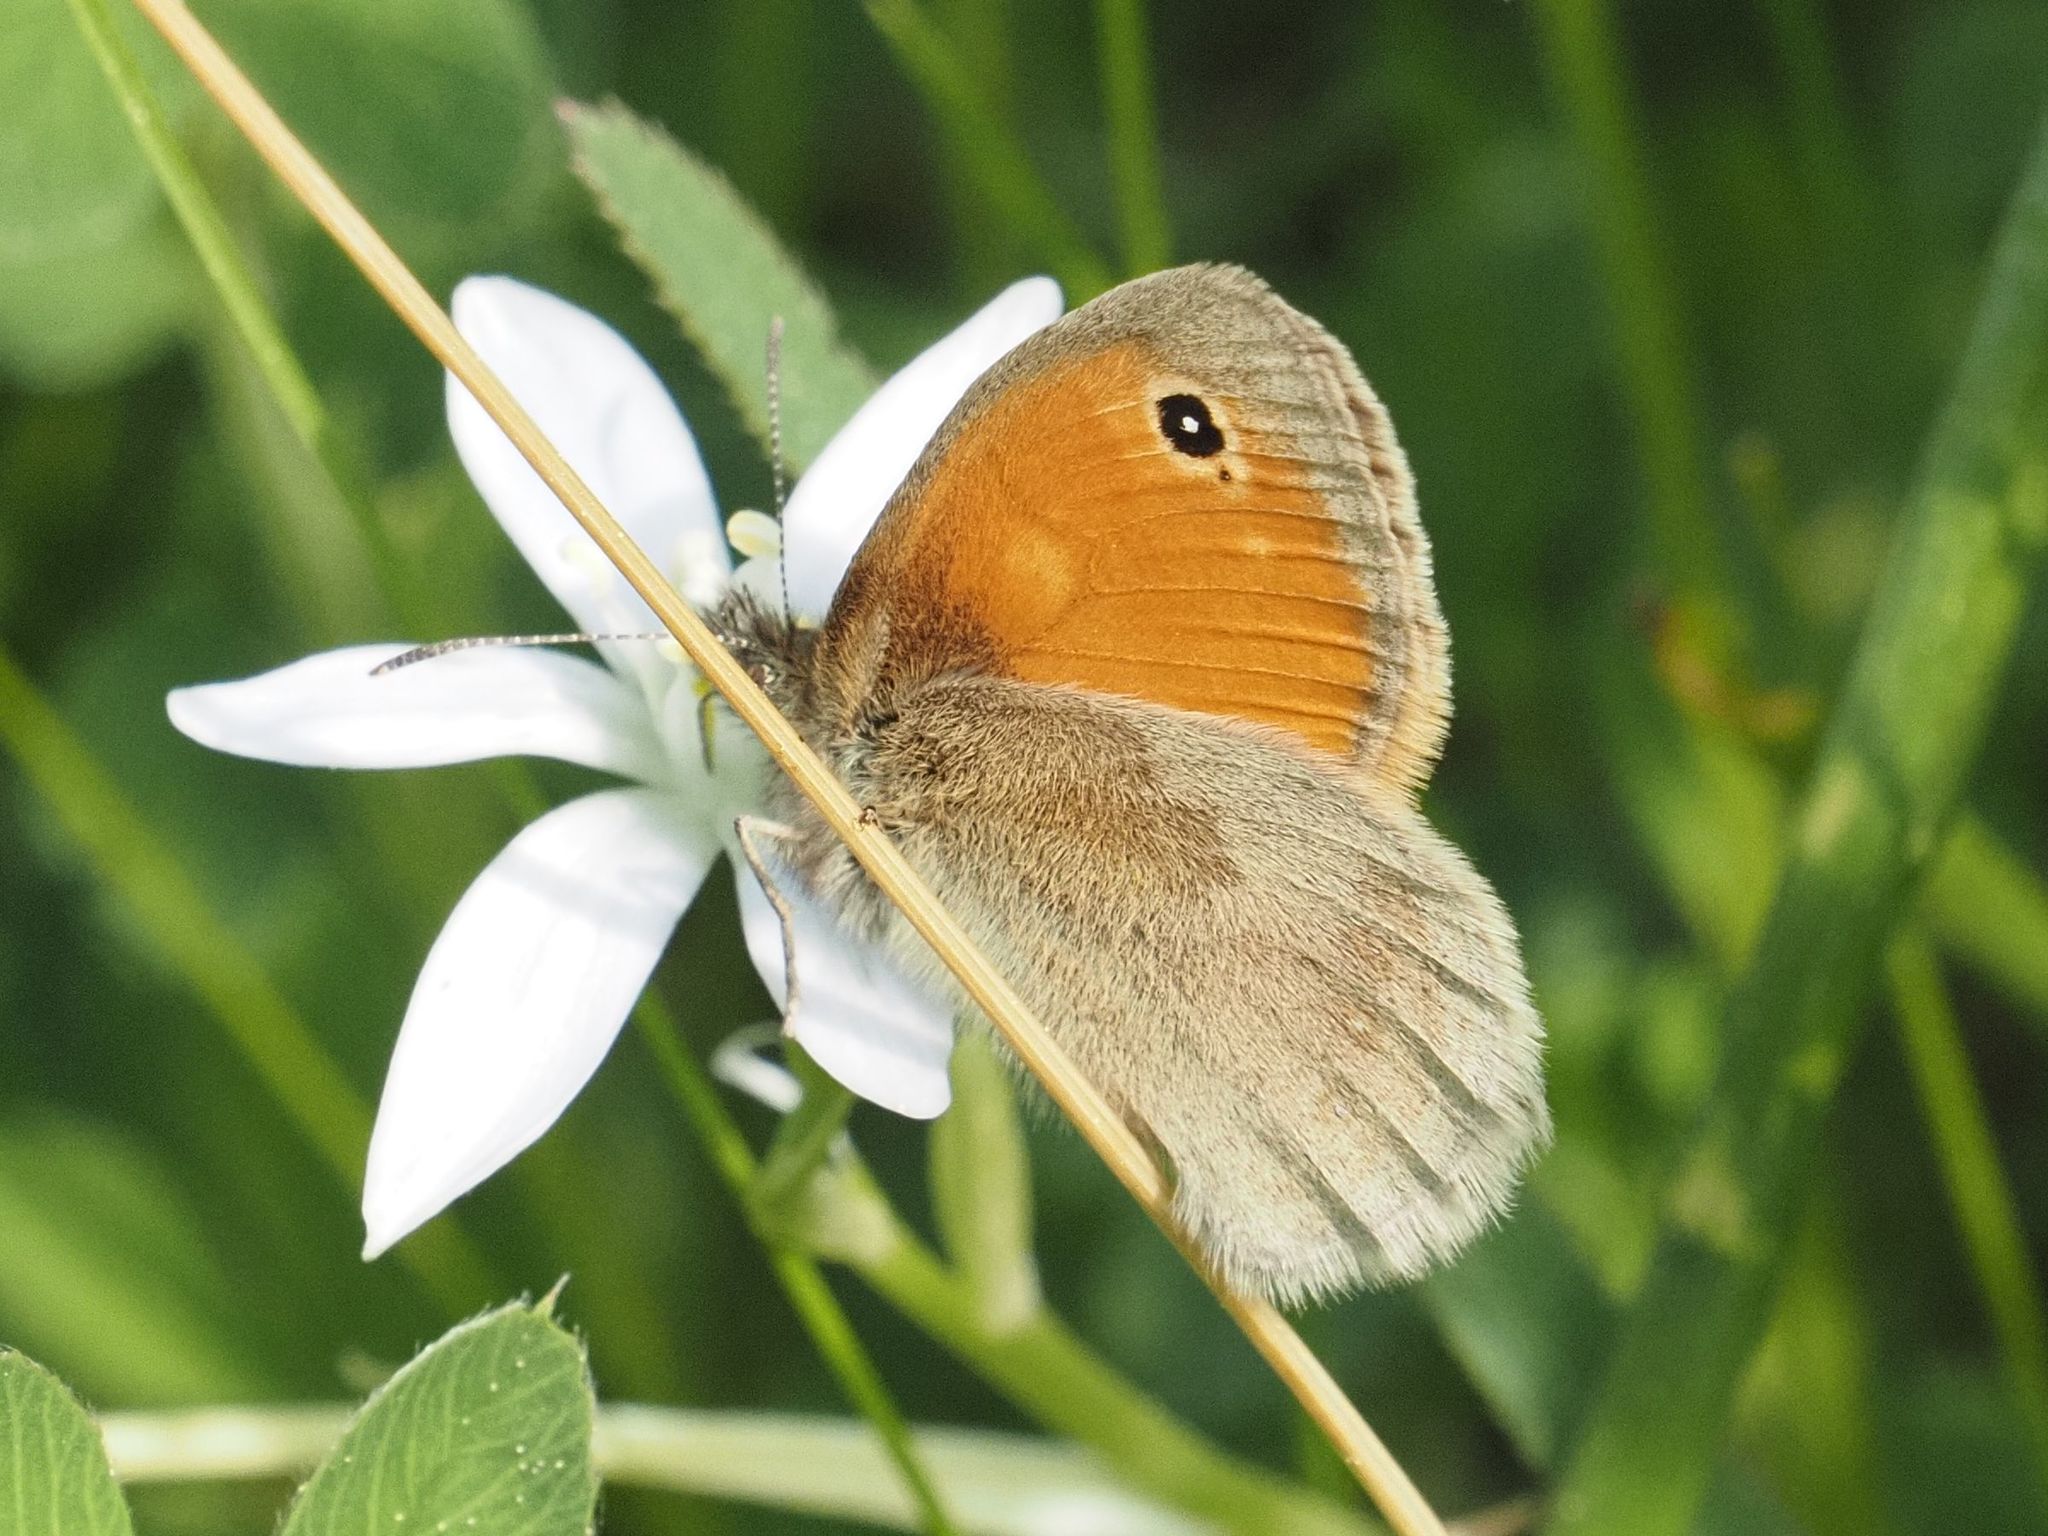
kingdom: Animalia
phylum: Arthropoda
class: Insecta
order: Lepidoptera
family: Nymphalidae
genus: Coenonympha
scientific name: Coenonympha pamphilus
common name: Small heath
